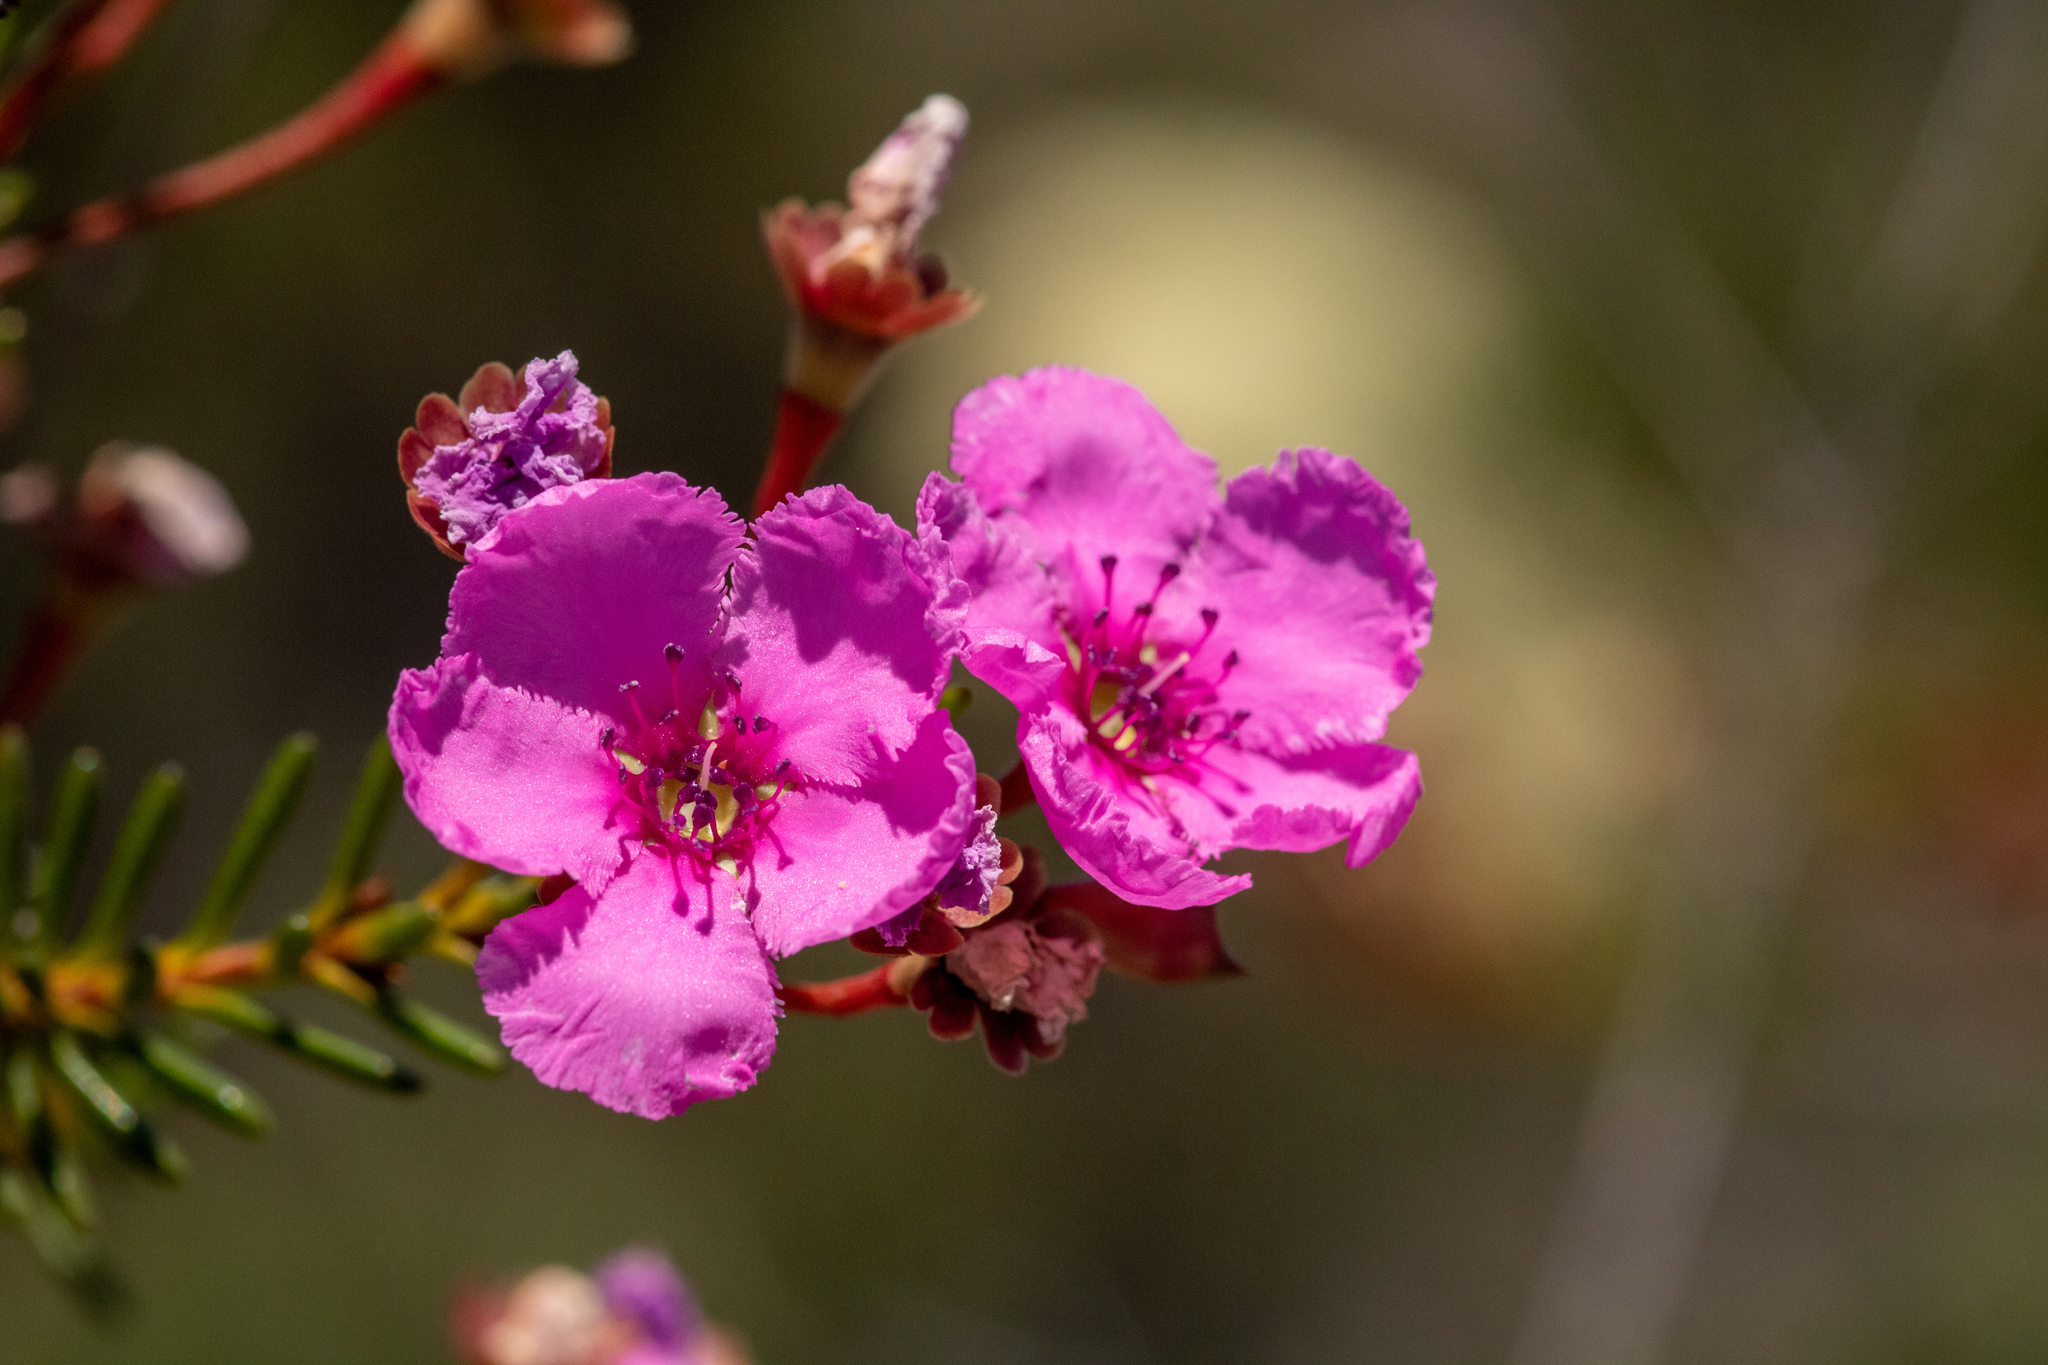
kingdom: Plantae
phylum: Tracheophyta
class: Magnoliopsida
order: Myrtales
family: Myrtaceae
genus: Pileanthus
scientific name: Pileanthus bellus
